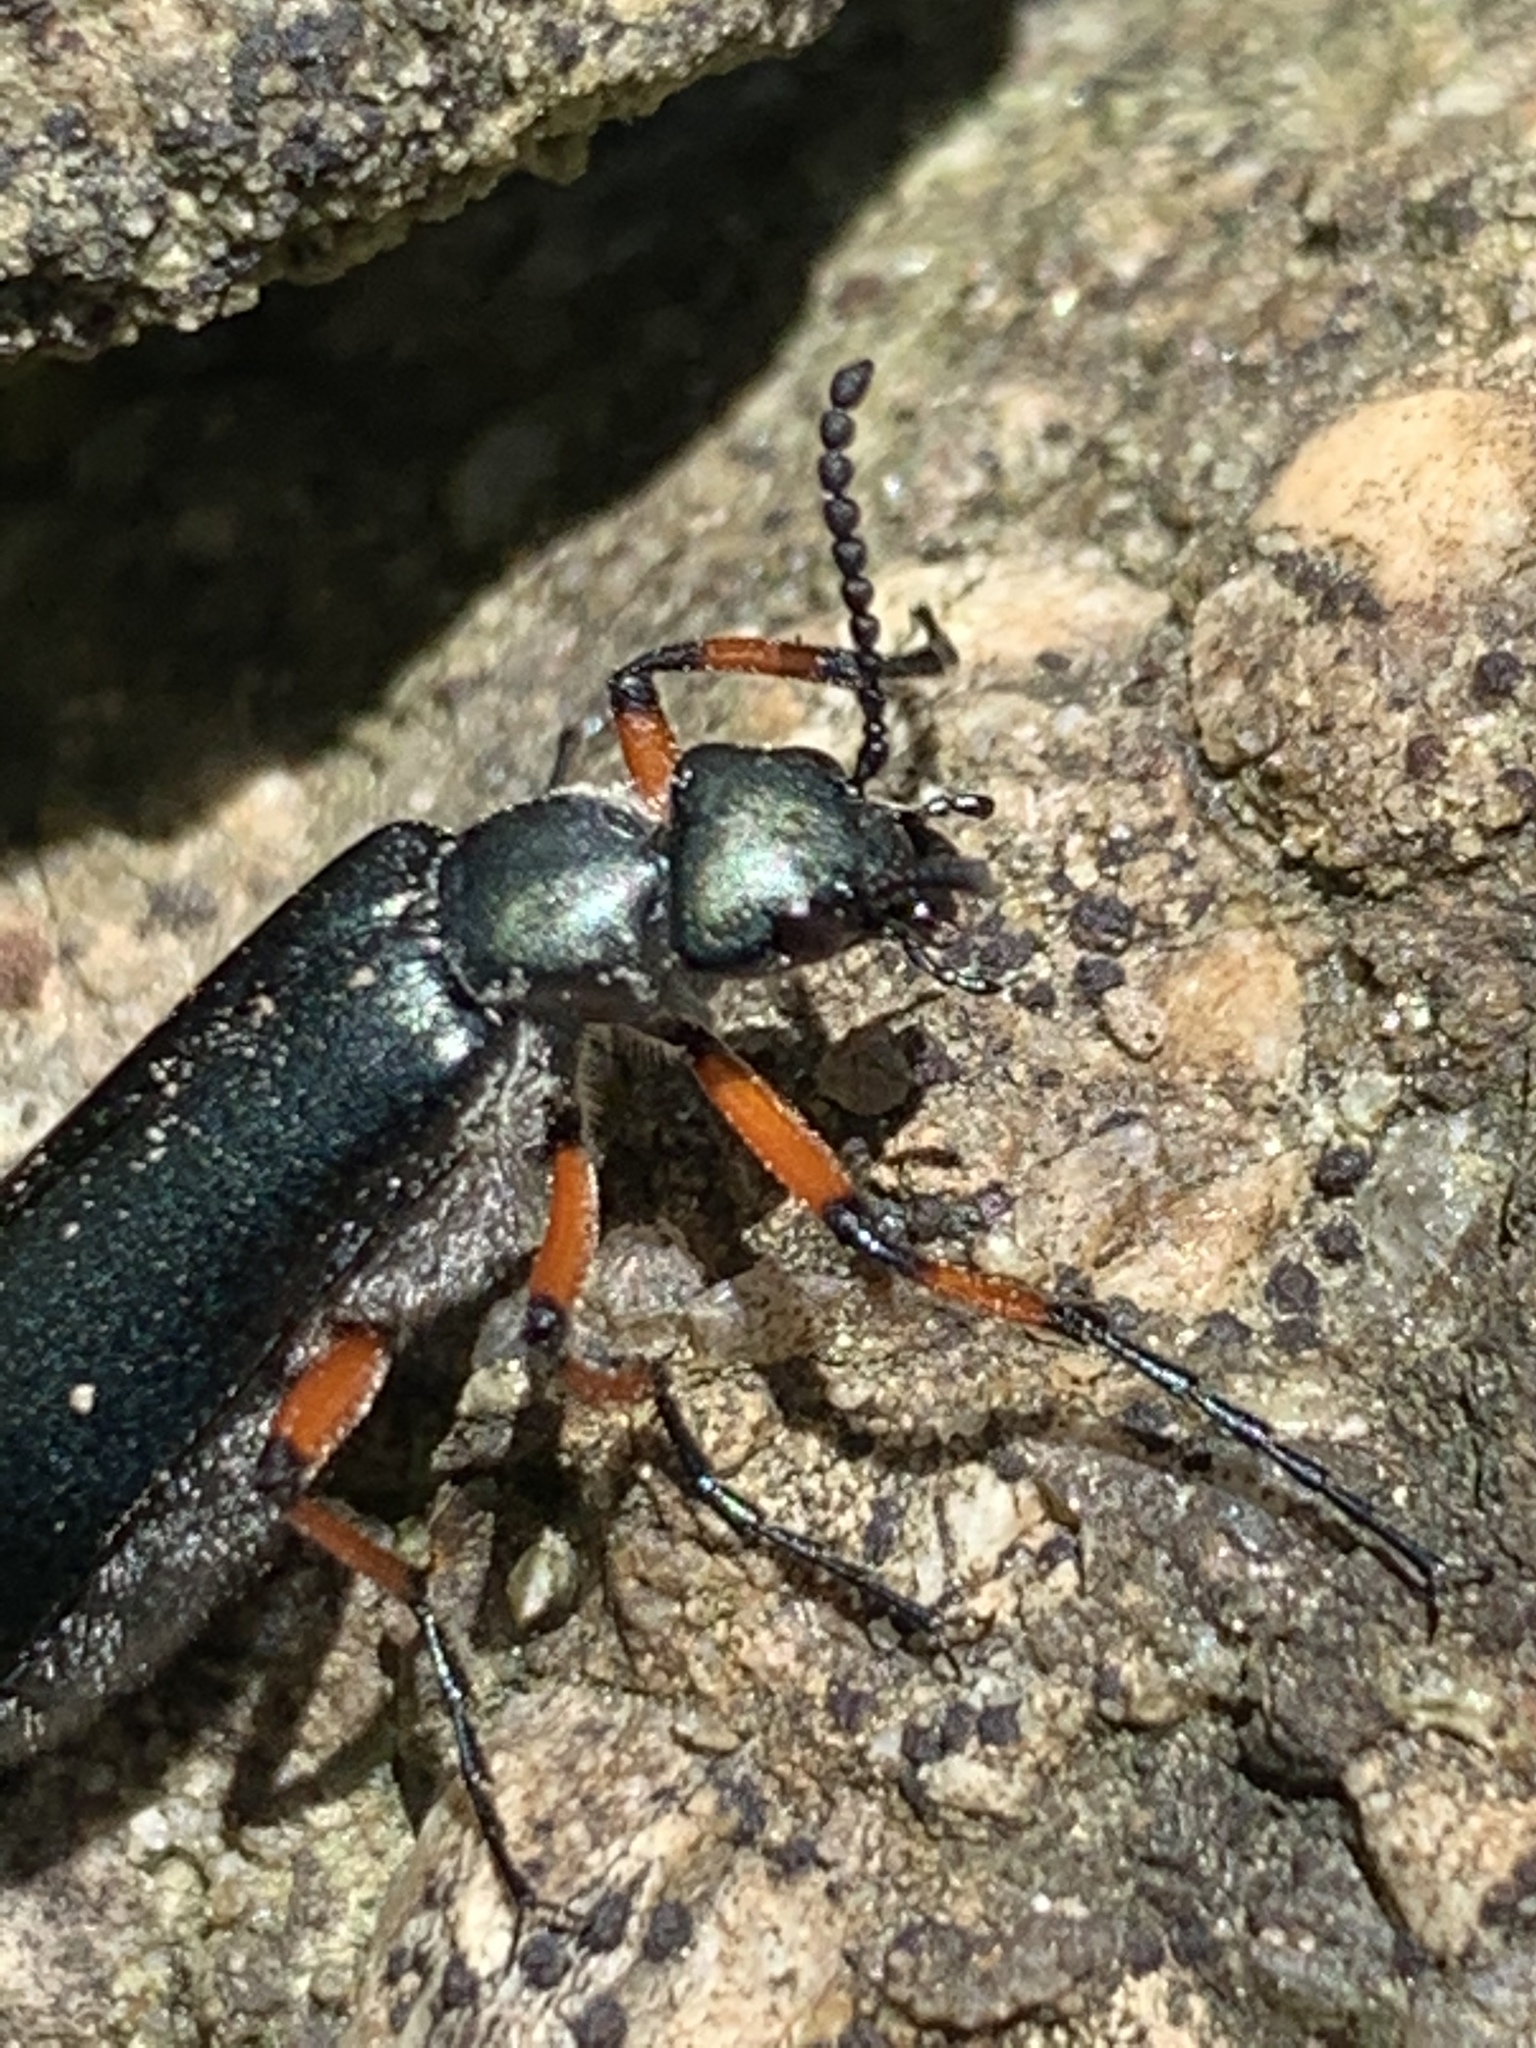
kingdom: Animalia
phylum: Arthropoda
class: Insecta
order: Coleoptera
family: Meloidae
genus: Lytta
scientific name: Lytta sayi
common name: Say's blister beetle
